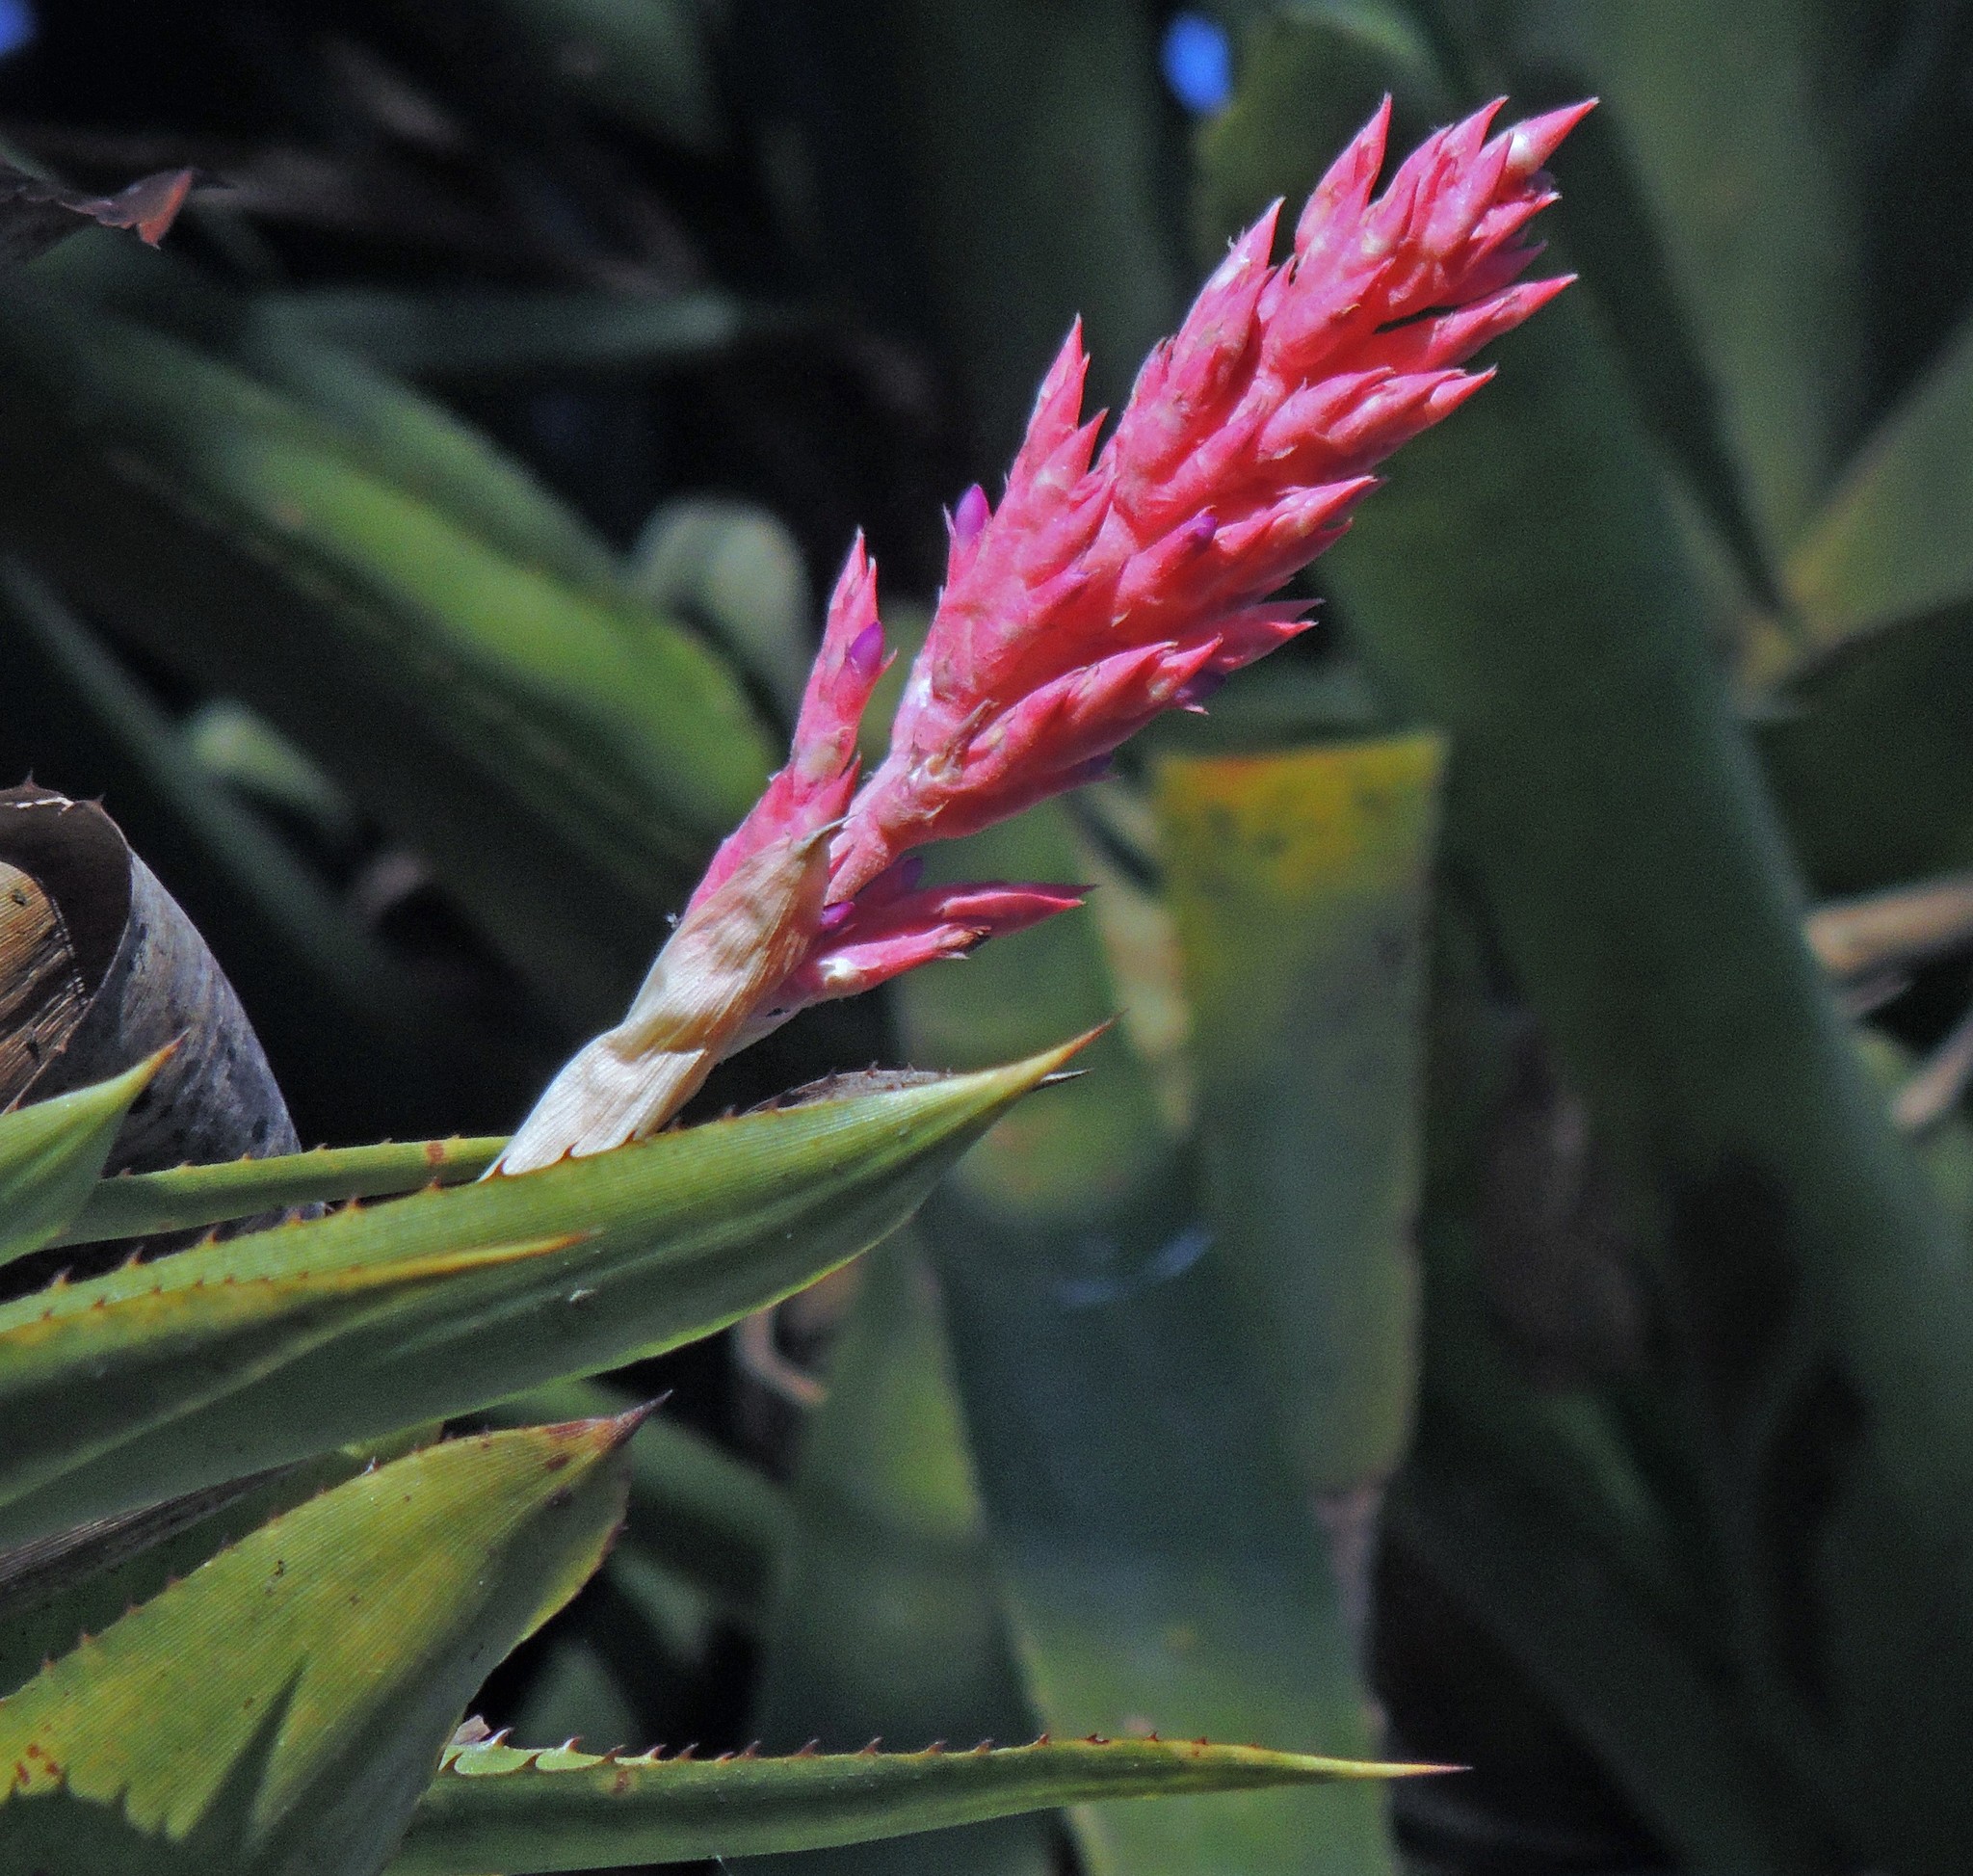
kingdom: Plantae
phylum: Tracheophyta
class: Liliopsida
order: Poales
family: Bromeliaceae
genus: Aechmea
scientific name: Aechmea distichantha
